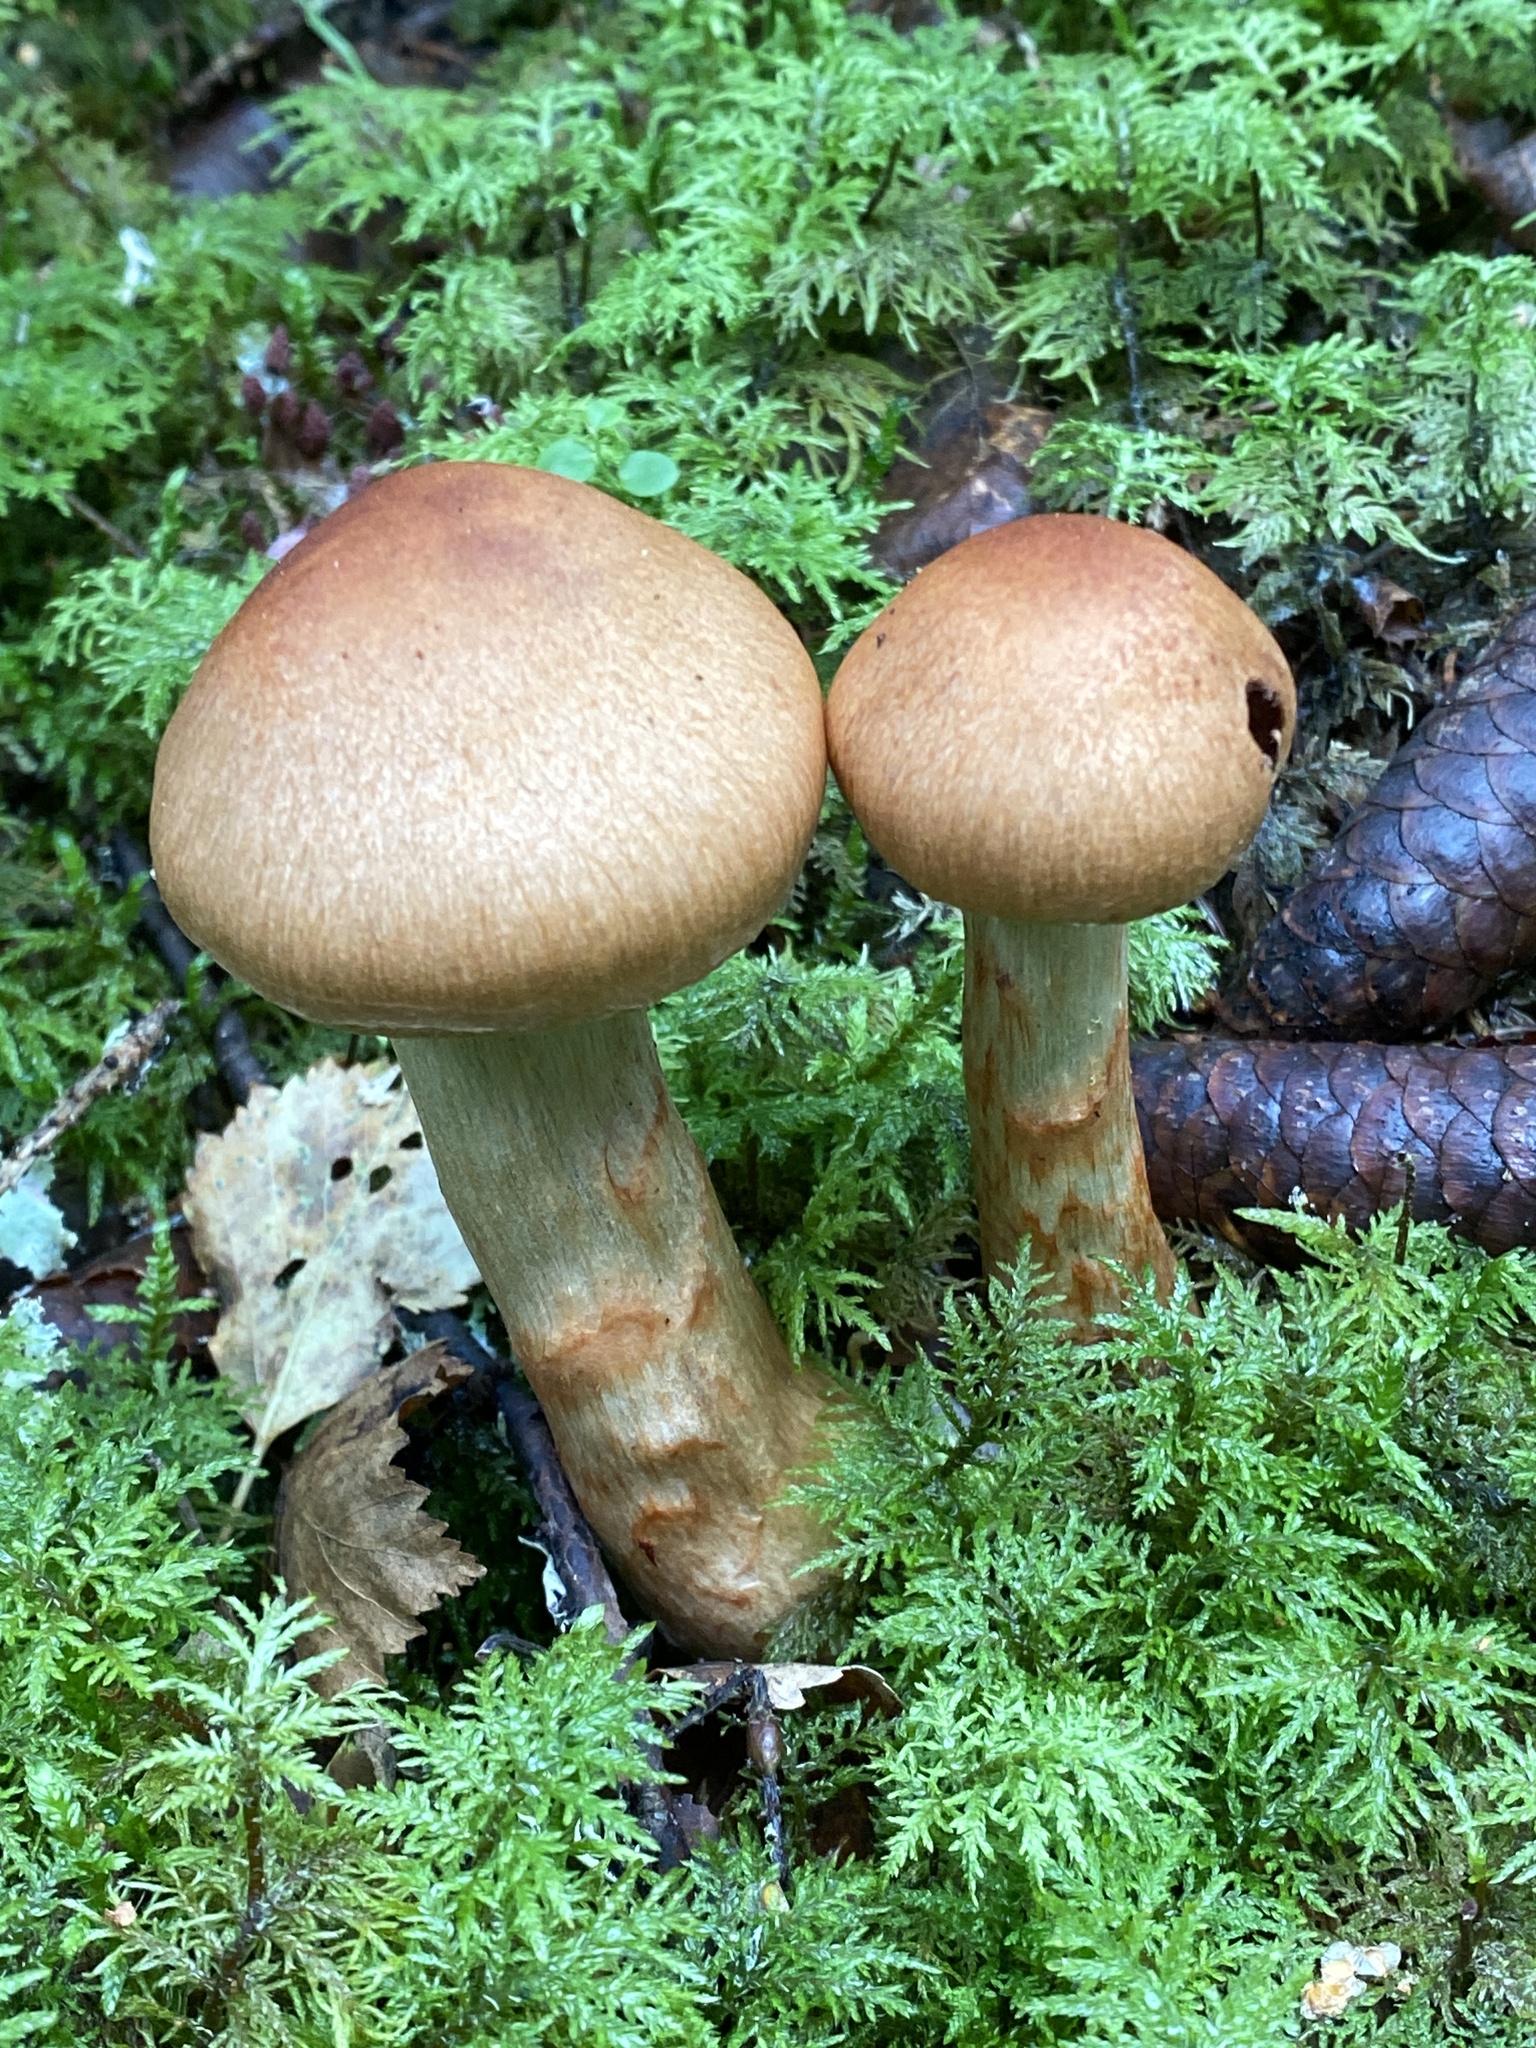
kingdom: Fungi
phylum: Basidiomycota
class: Agaricomycetes
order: Agaricales
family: Cortinariaceae
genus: Cortinarius
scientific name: Cortinarius armillatus
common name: Red banded webcap
